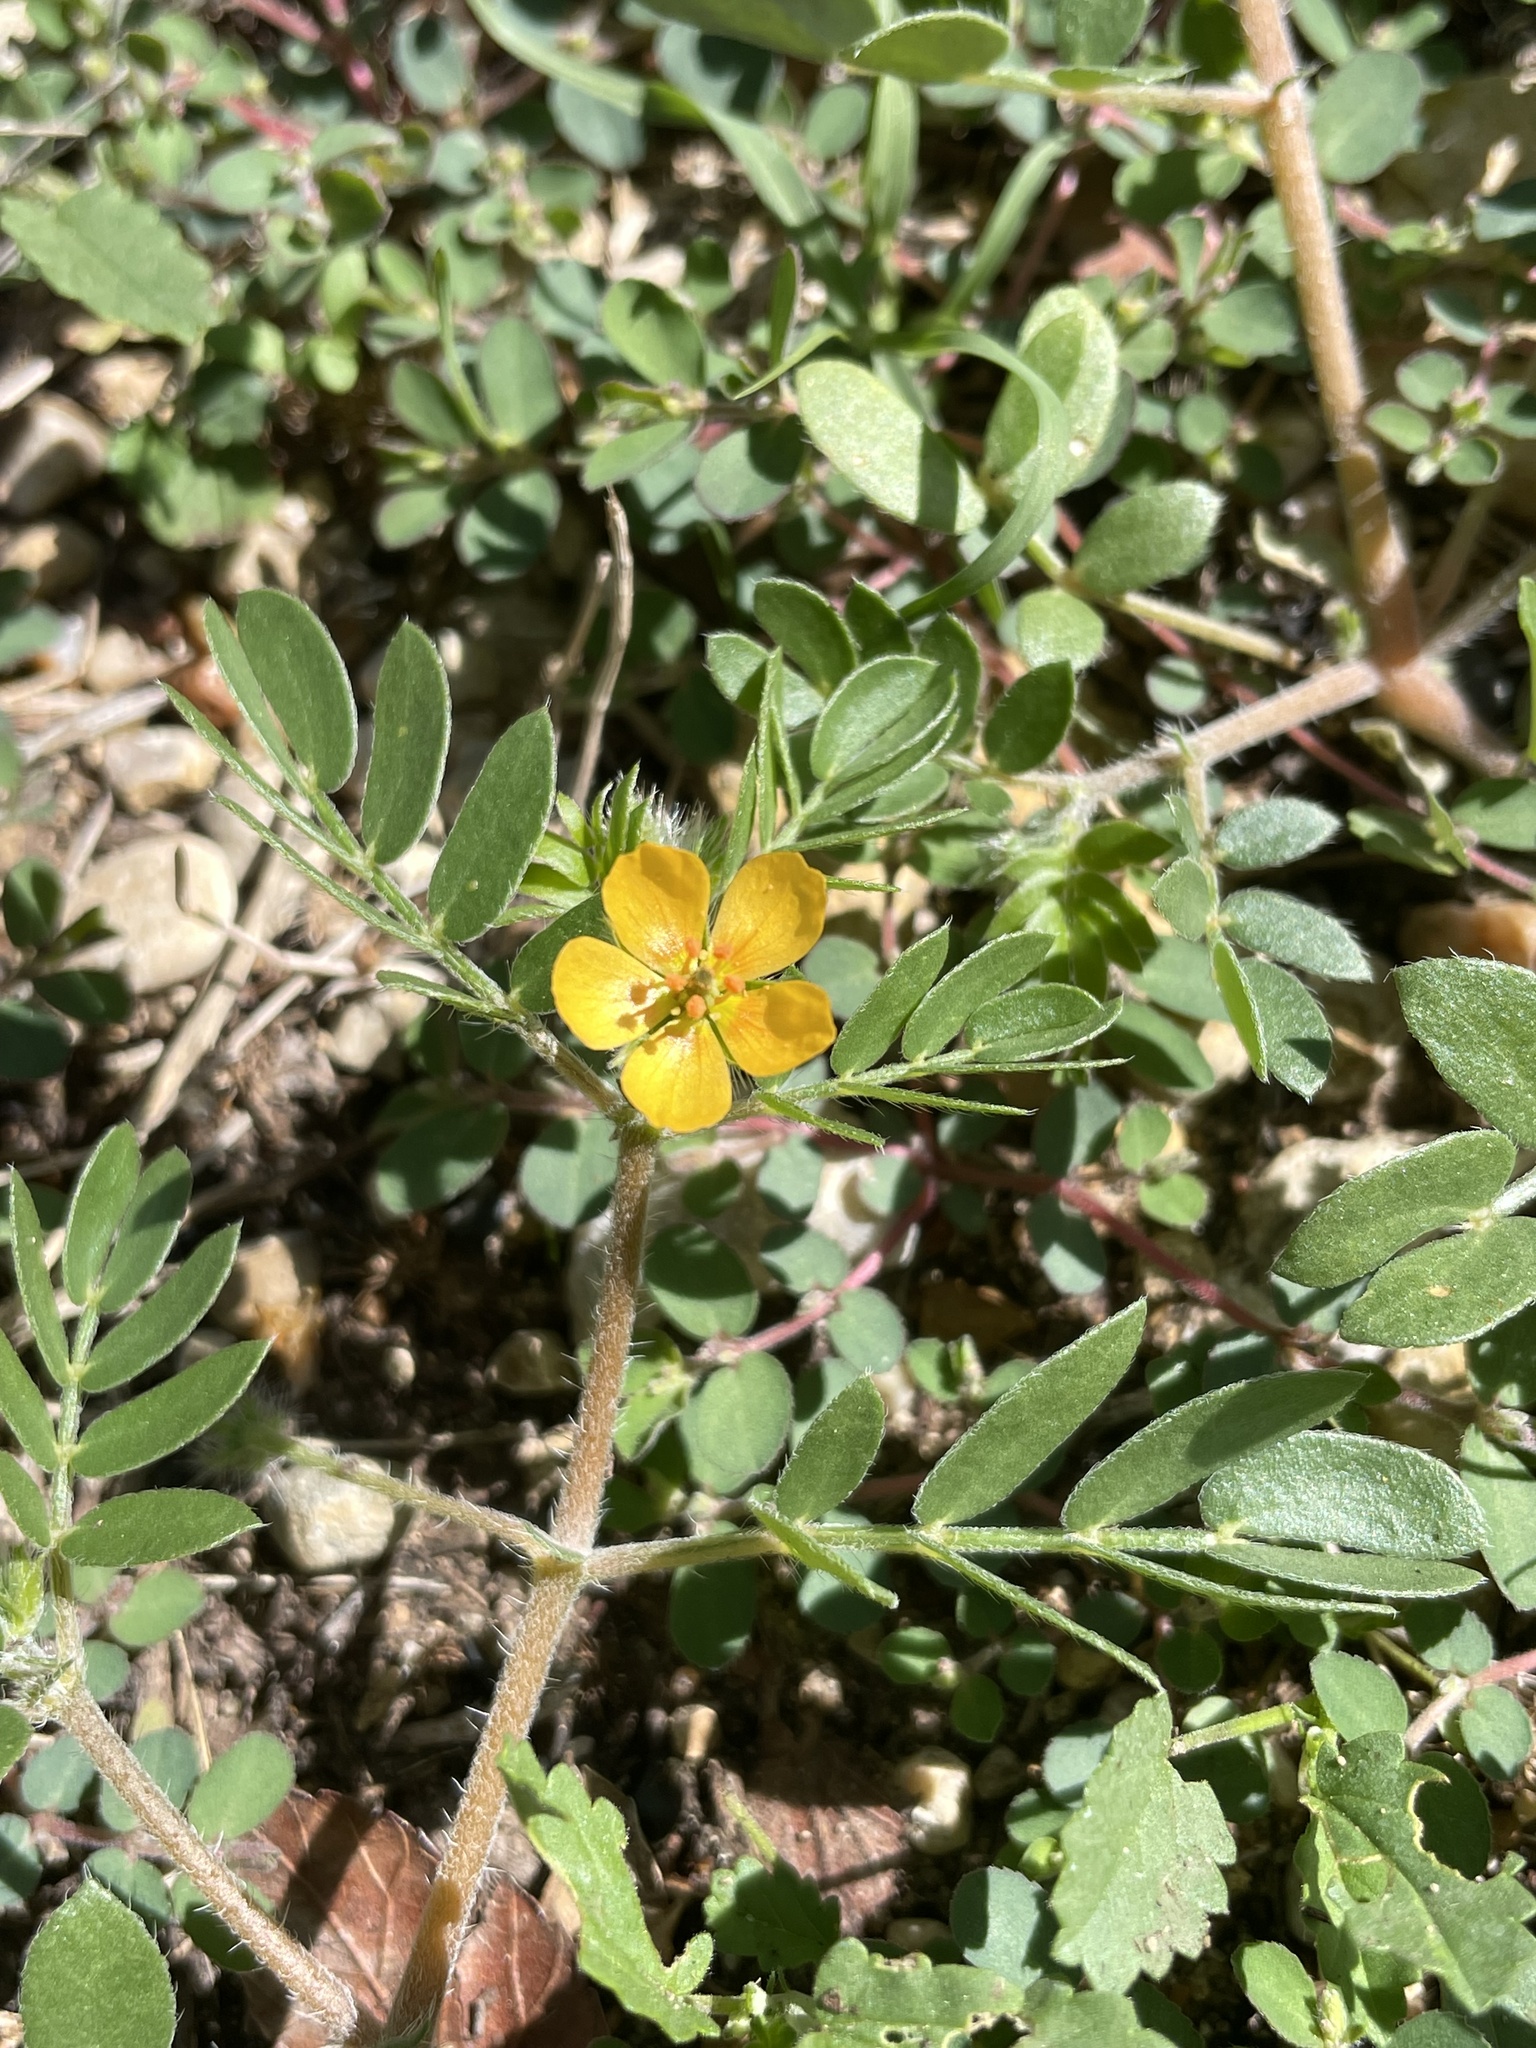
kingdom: Plantae
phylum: Tracheophyta
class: Magnoliopsida
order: Zygophyllales
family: Zygophyllaceae
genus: Kallstroemia
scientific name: Kallstroemia parviflora
